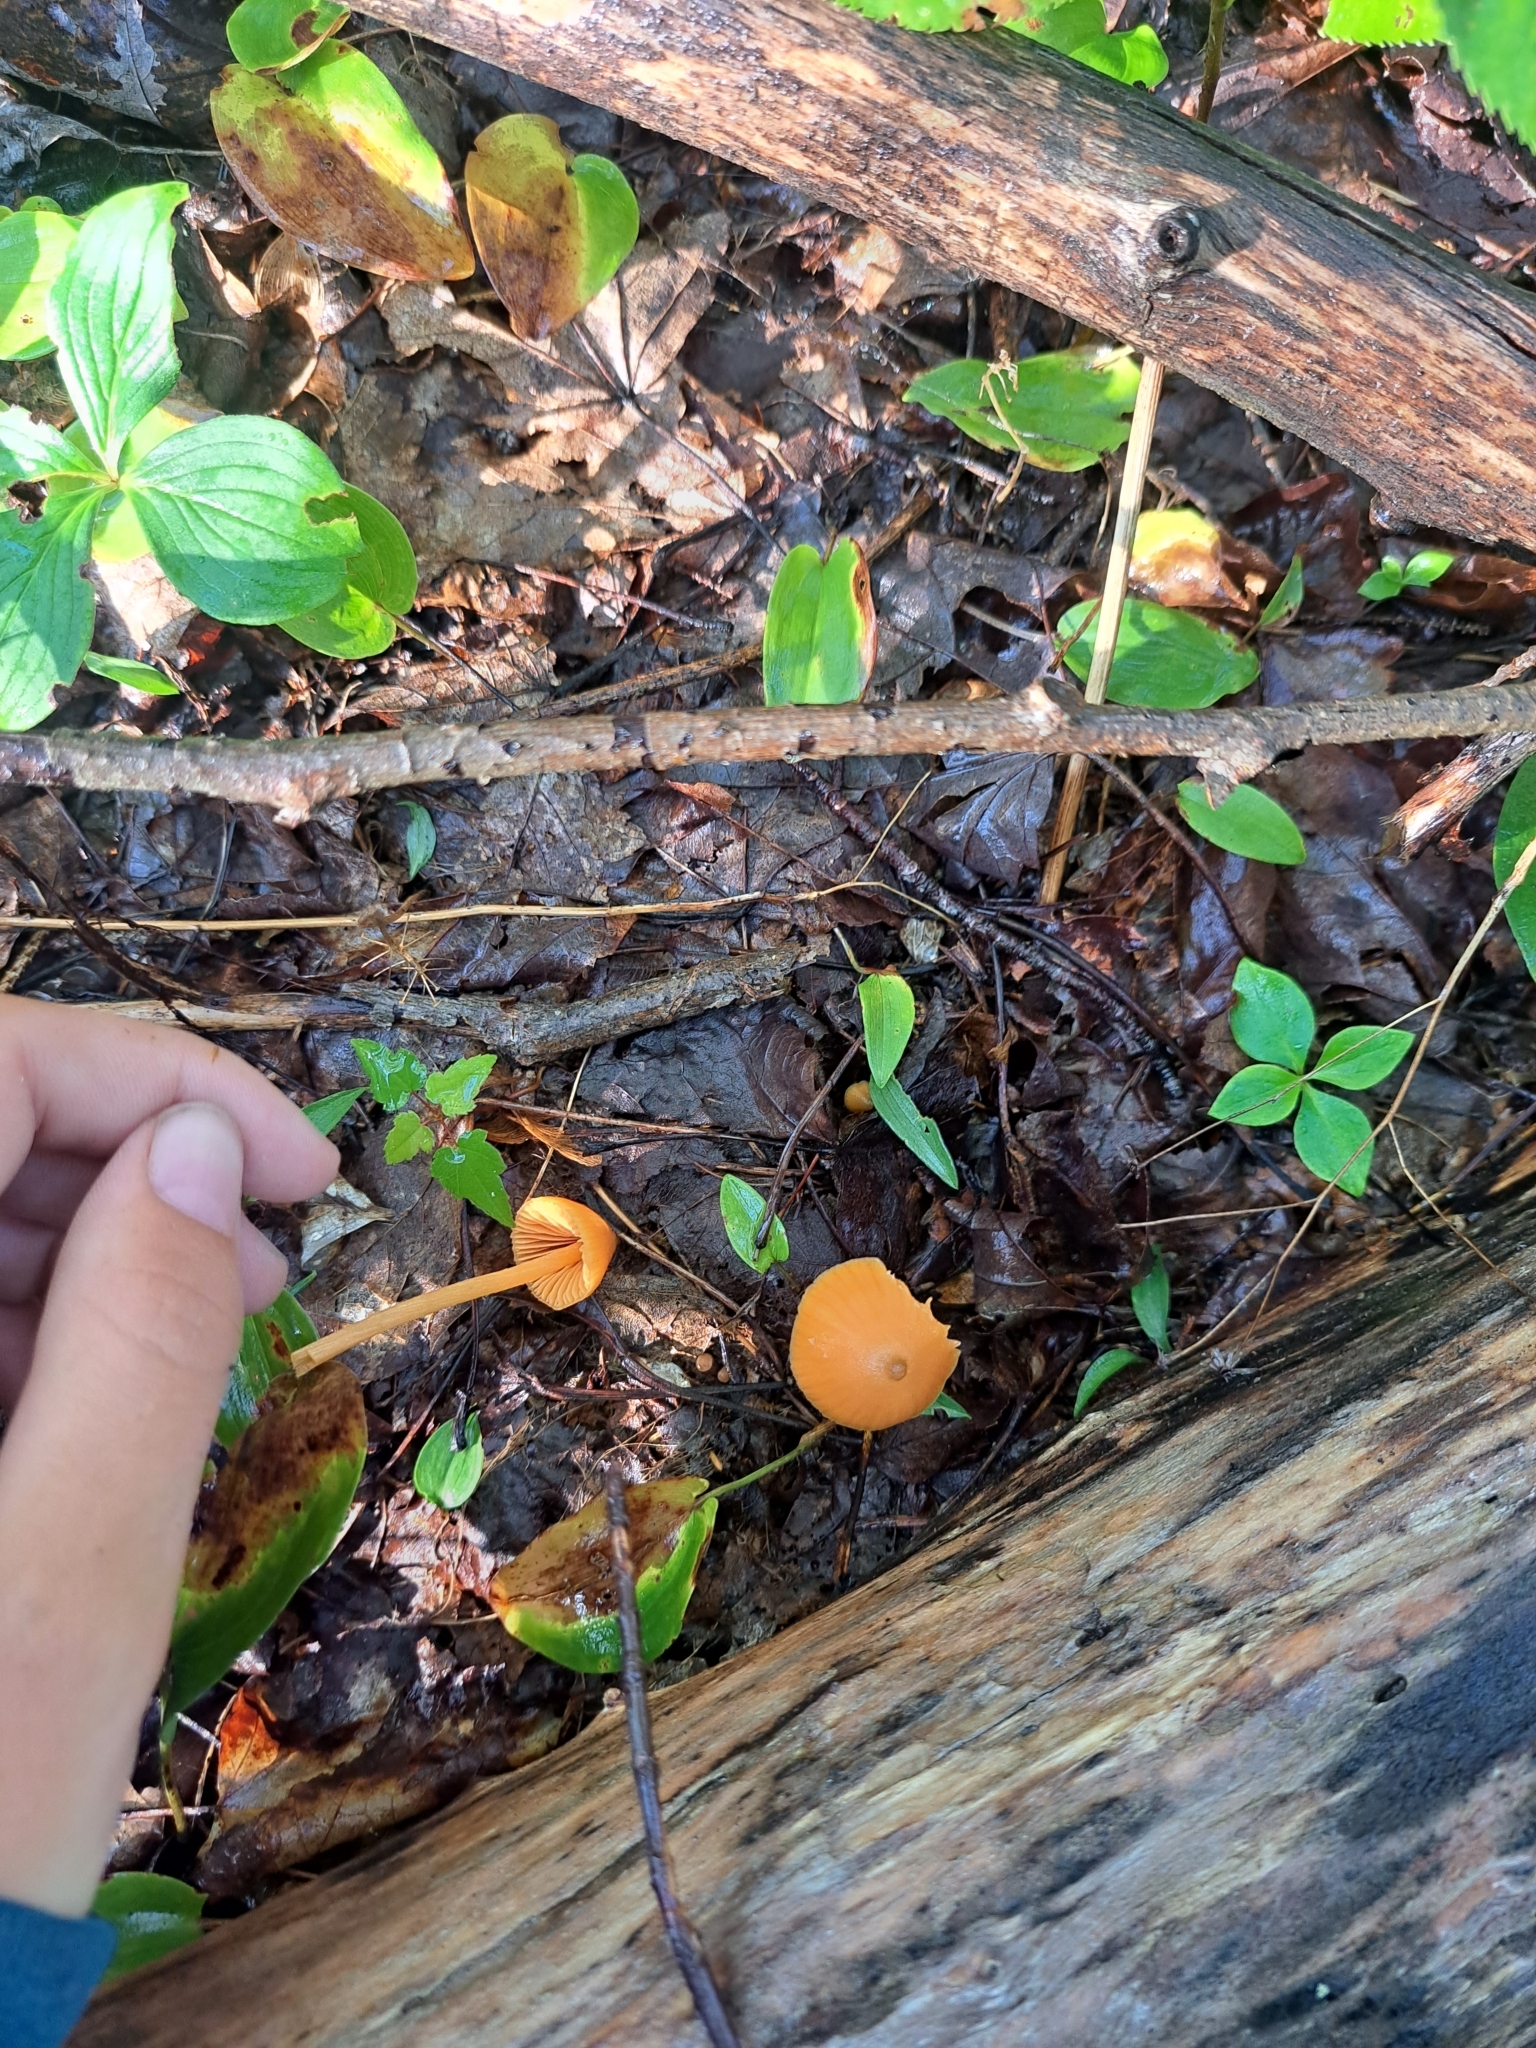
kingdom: Fungi
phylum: Basidiomycota
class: Agaricomycetes
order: Agaricales
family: Entolomataceae
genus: Entoloma
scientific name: Entoloma quadratum
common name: Salmon pinkgill
